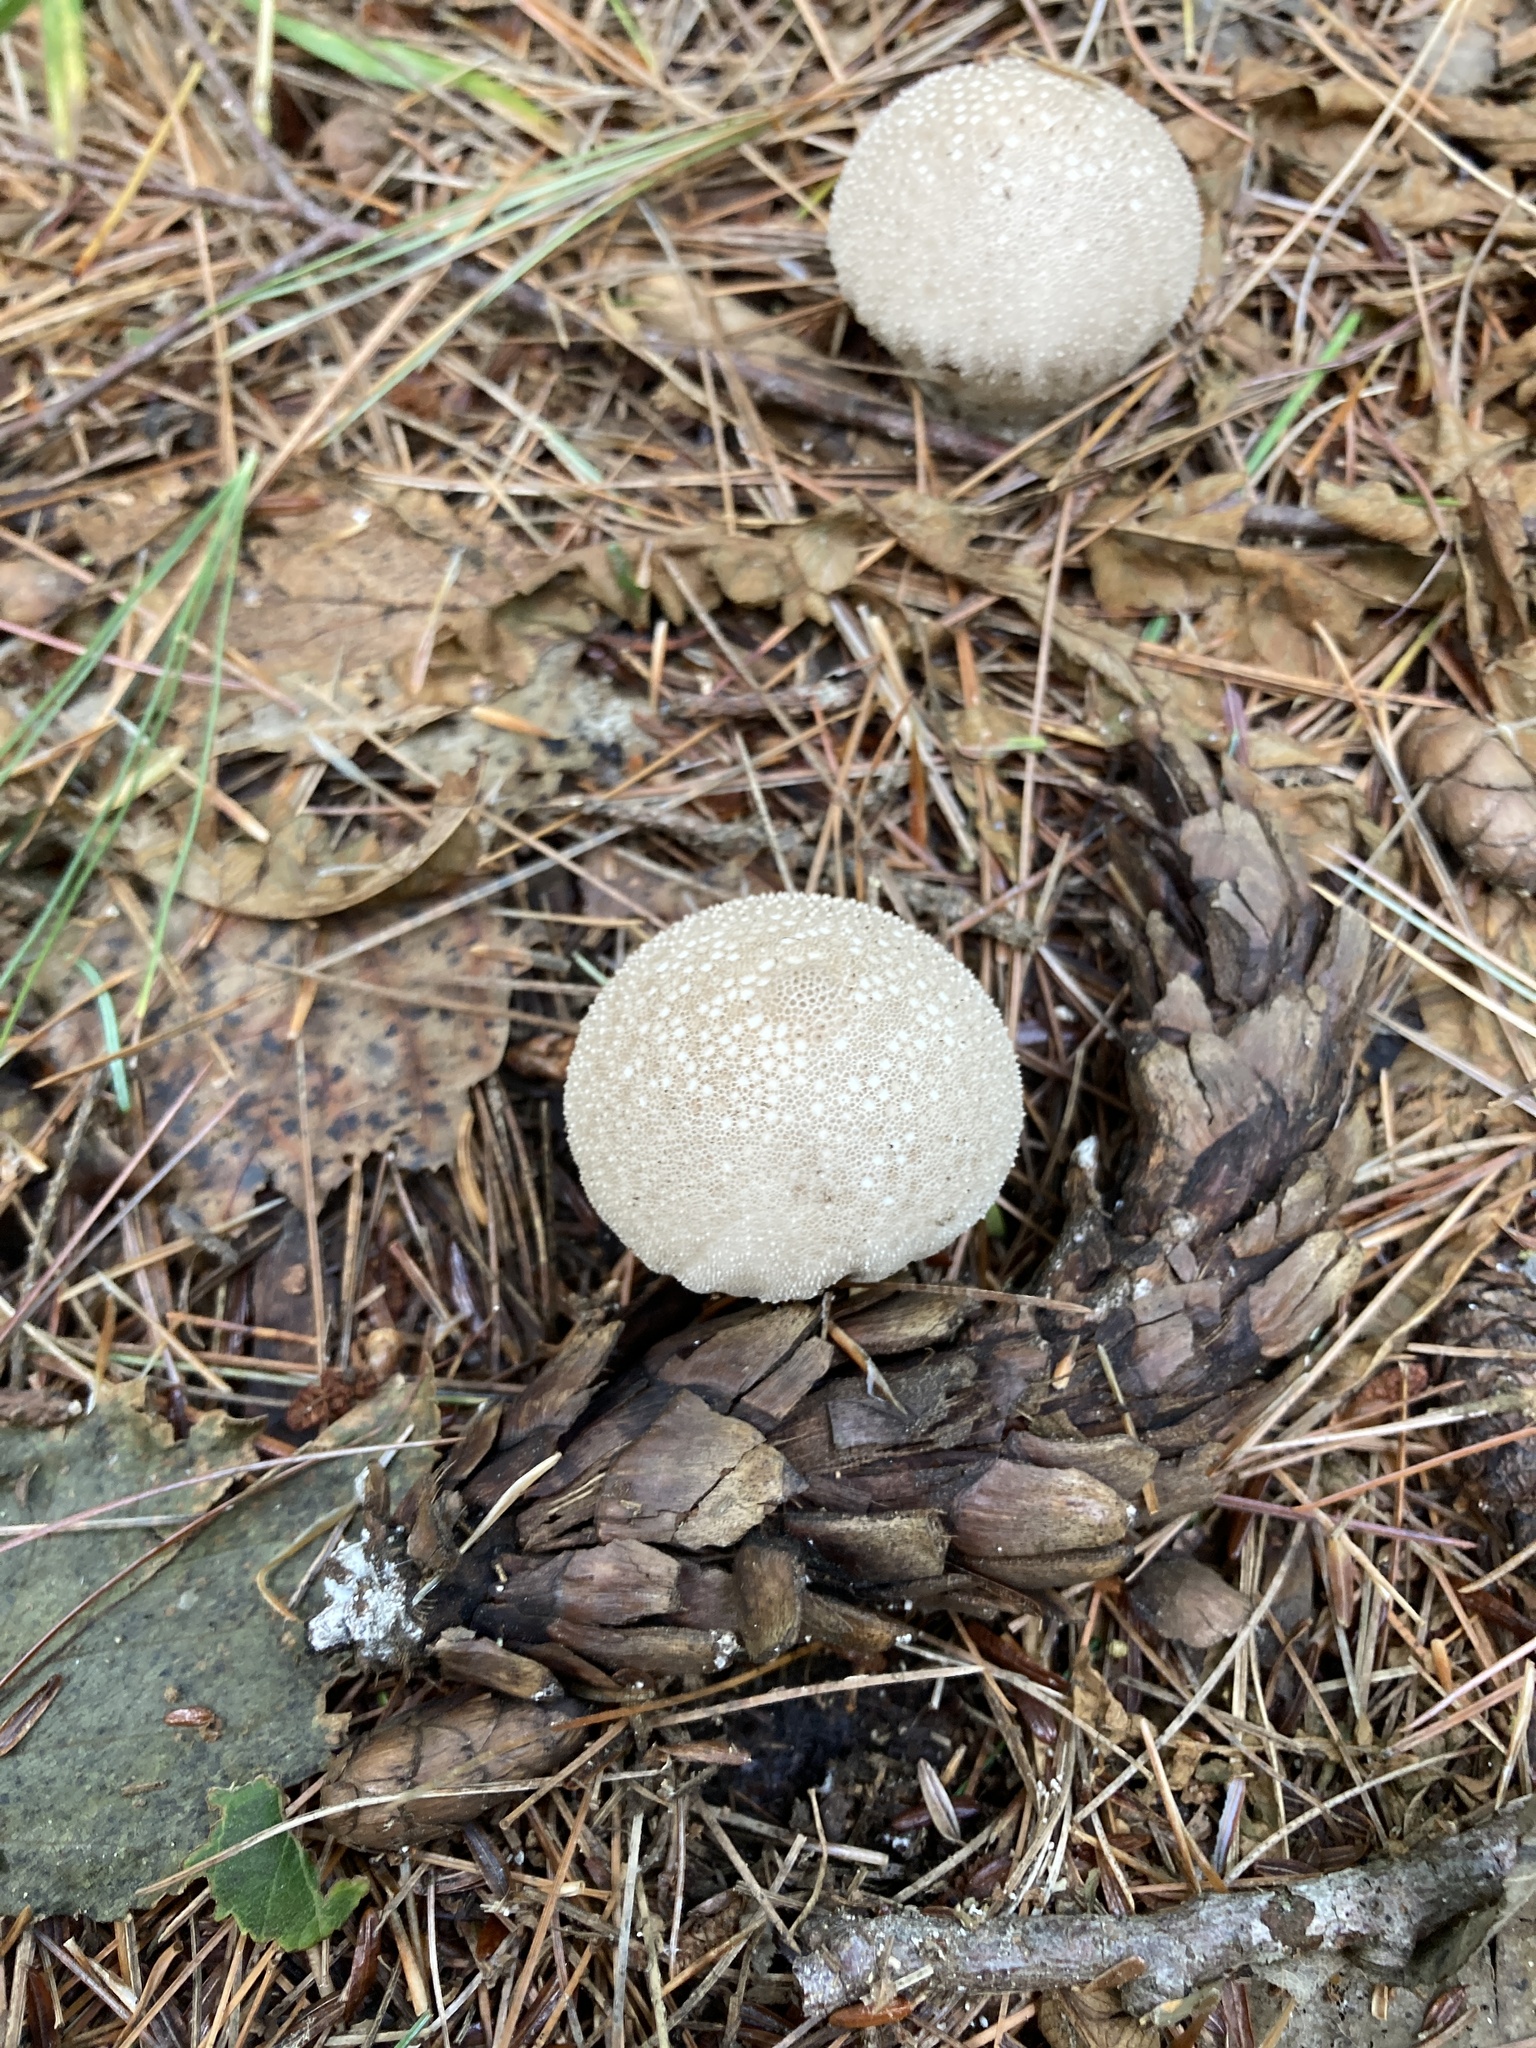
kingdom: Fungi
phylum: Basidiomycota
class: Agaricomycetes
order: Agaricales
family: Lycoperdaceae
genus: Lycoperdon
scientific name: Lycoperdon perlatum
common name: Common puffball
